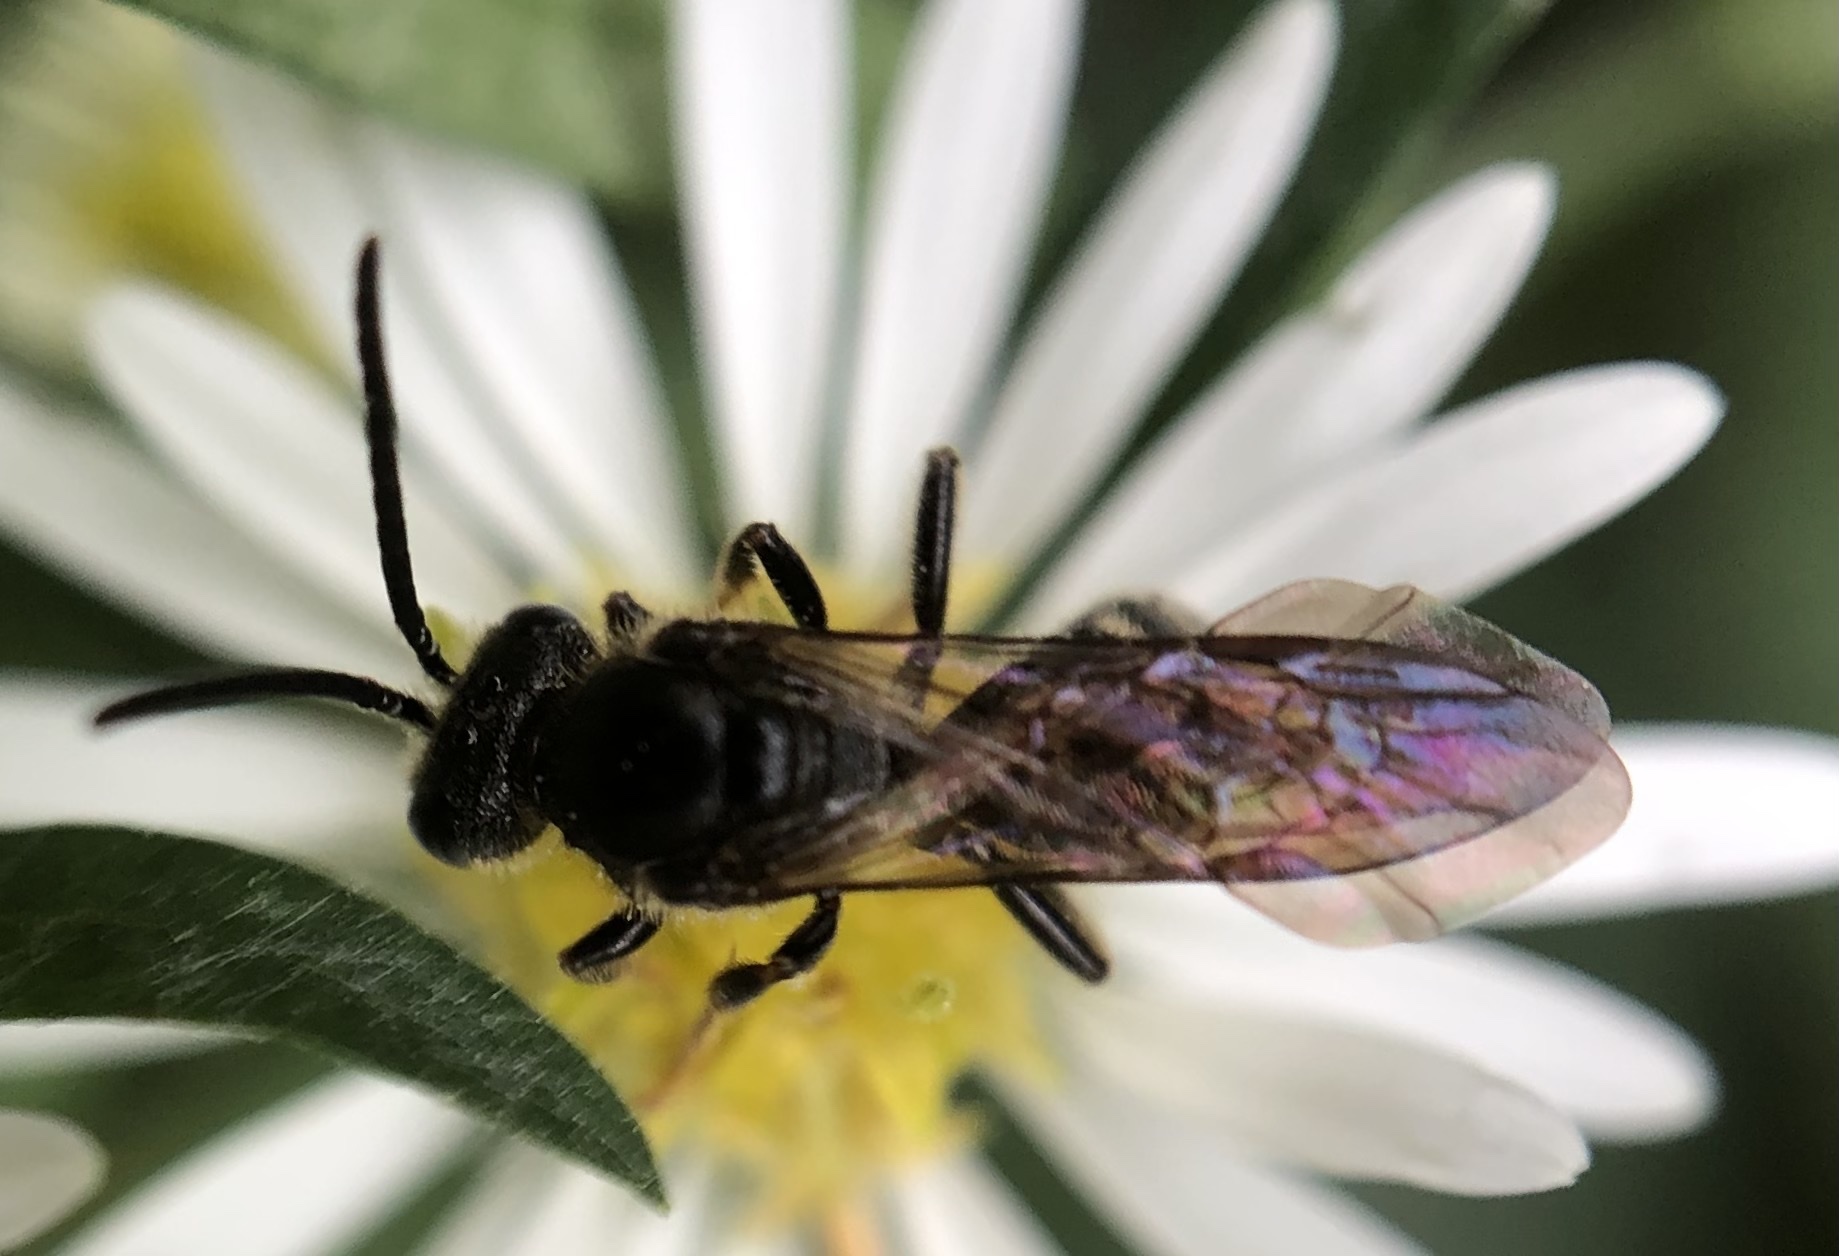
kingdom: Animalia
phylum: Arthropoda
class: Insecta
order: Hymenoptera
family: Halictidae
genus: Lasioglossum
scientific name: Lasioglossum fuscipenne
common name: Brown-winged sweat bee
